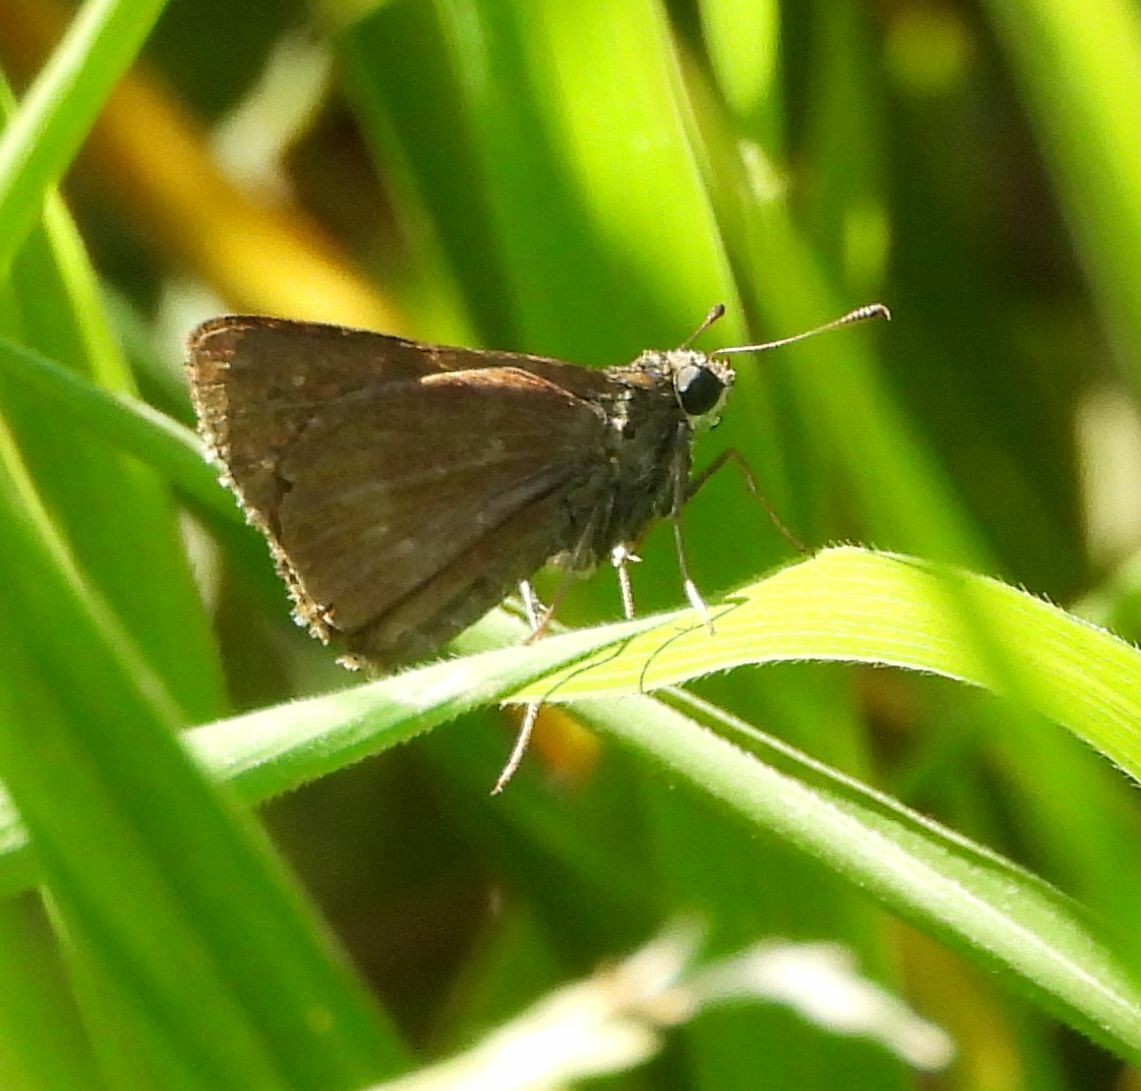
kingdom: Animalia
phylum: Arthropoda
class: Insecta
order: Lepidoptera
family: Hesperiidae
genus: Euphyes
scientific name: Euphyes vestris
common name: Dun skipper
